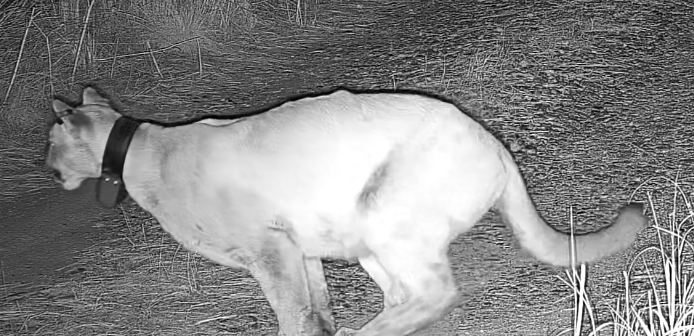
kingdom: Animalia
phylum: Chordata
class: Mammalia
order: Carnivora
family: Felidae
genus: Puma
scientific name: Puma concolor
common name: Puma
